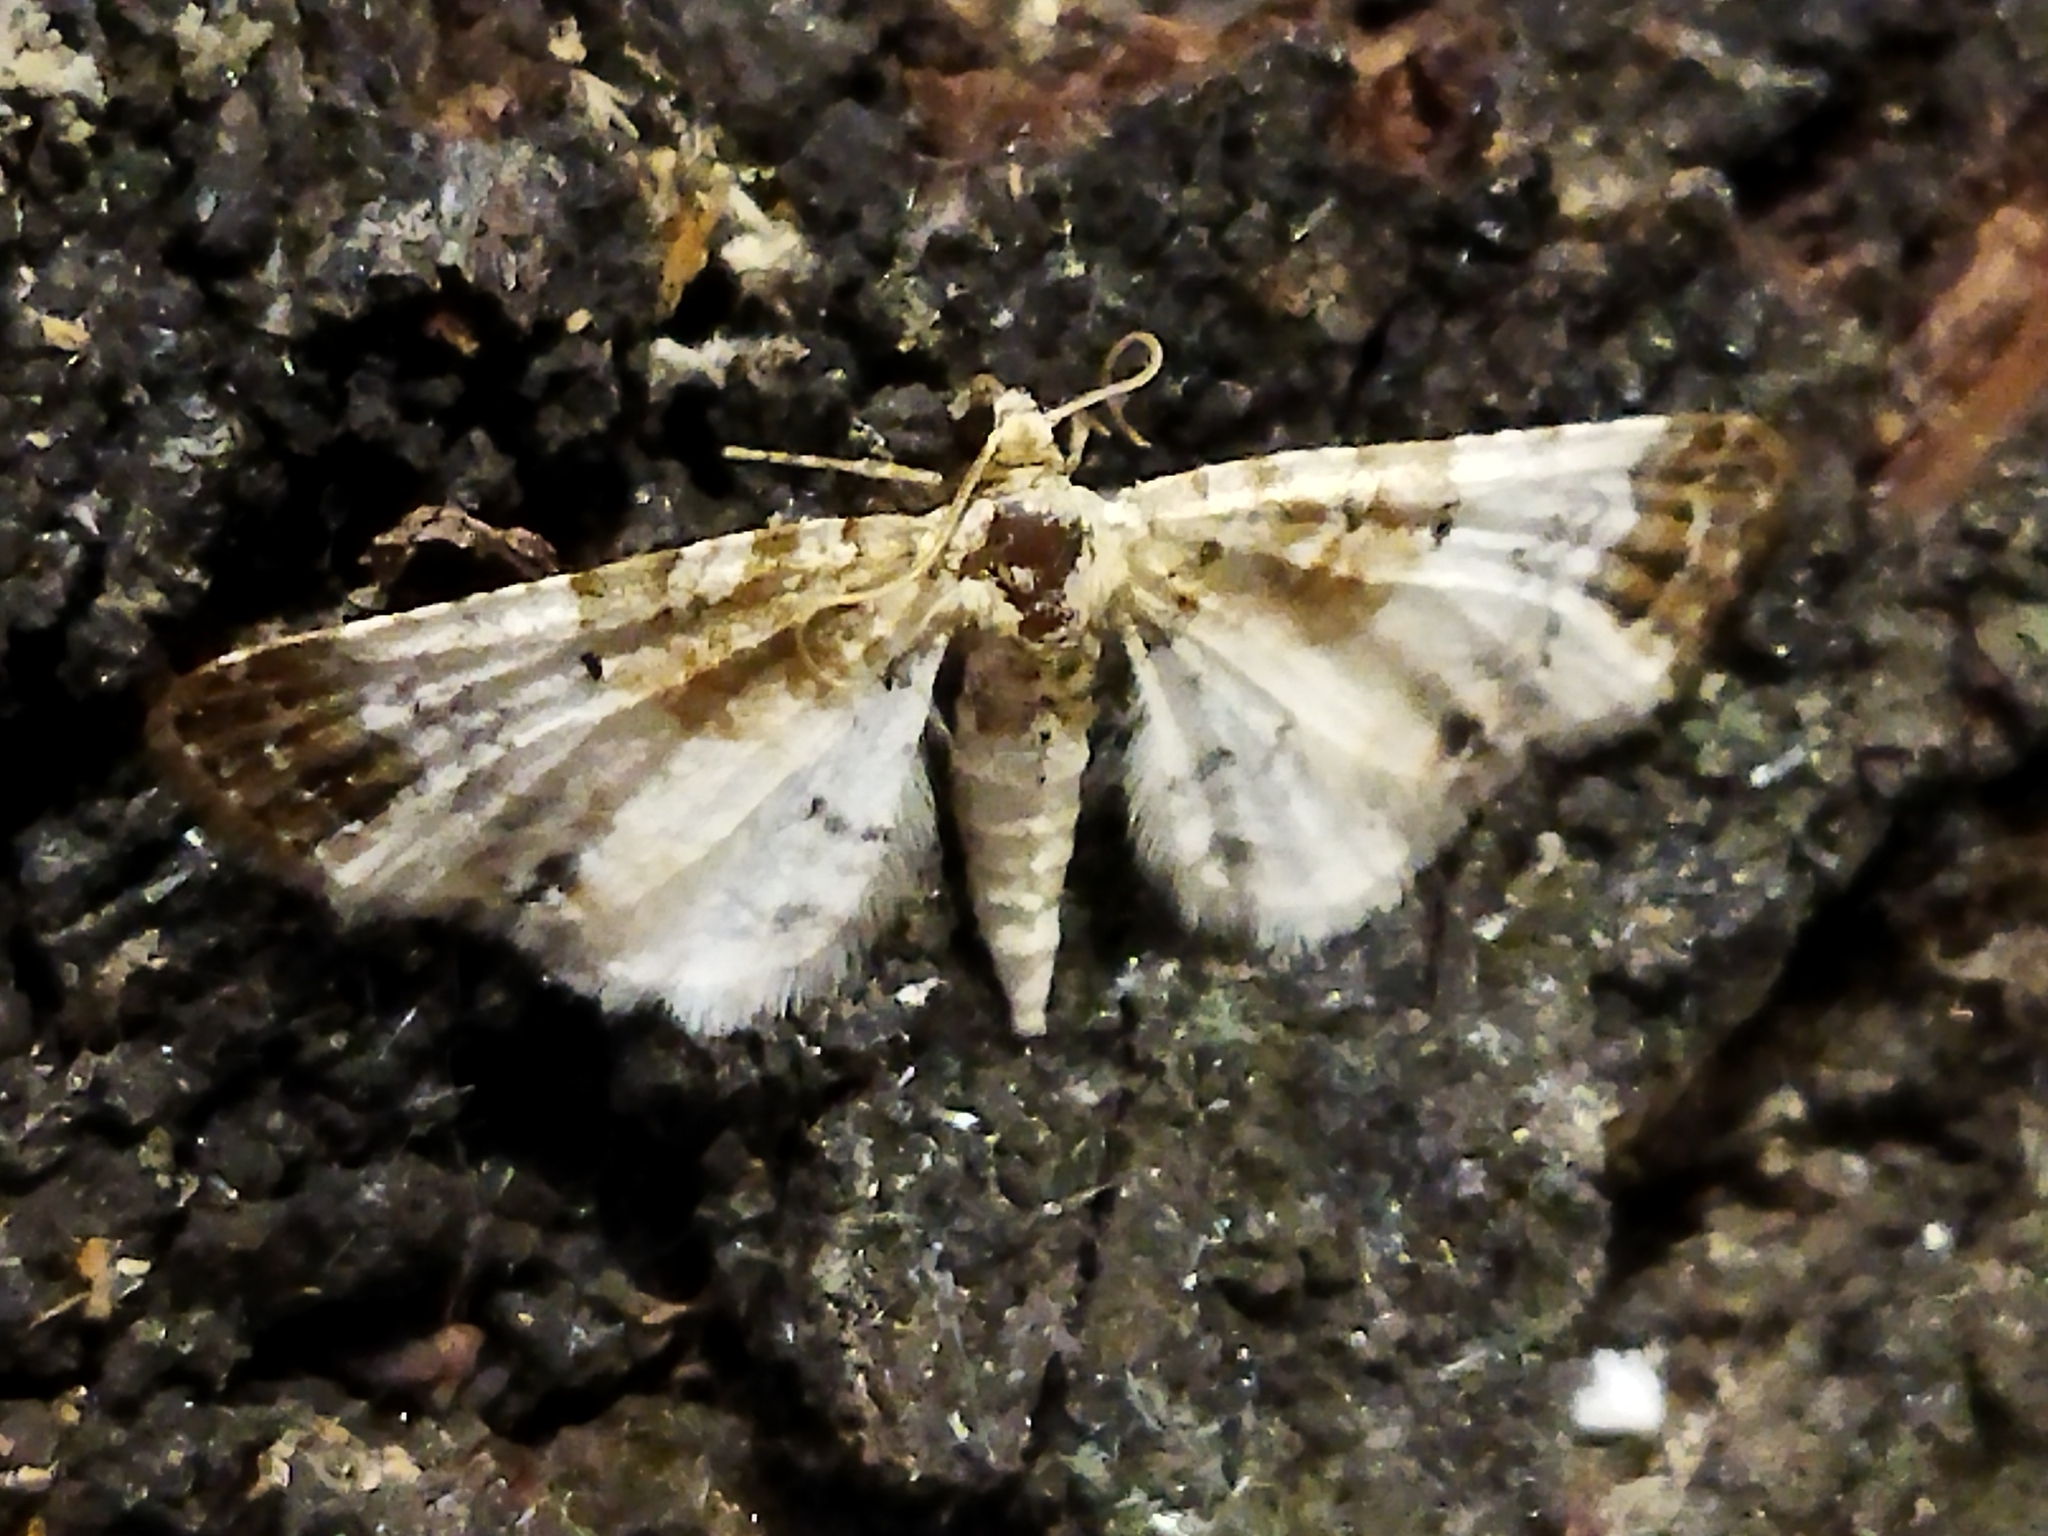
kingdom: Animalia
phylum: Arthropoda
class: Insecta
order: Lepidoptera
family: Geometridae
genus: Eupithecia
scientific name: Eupithecia breviculata
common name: Rusty-shouldered pug
